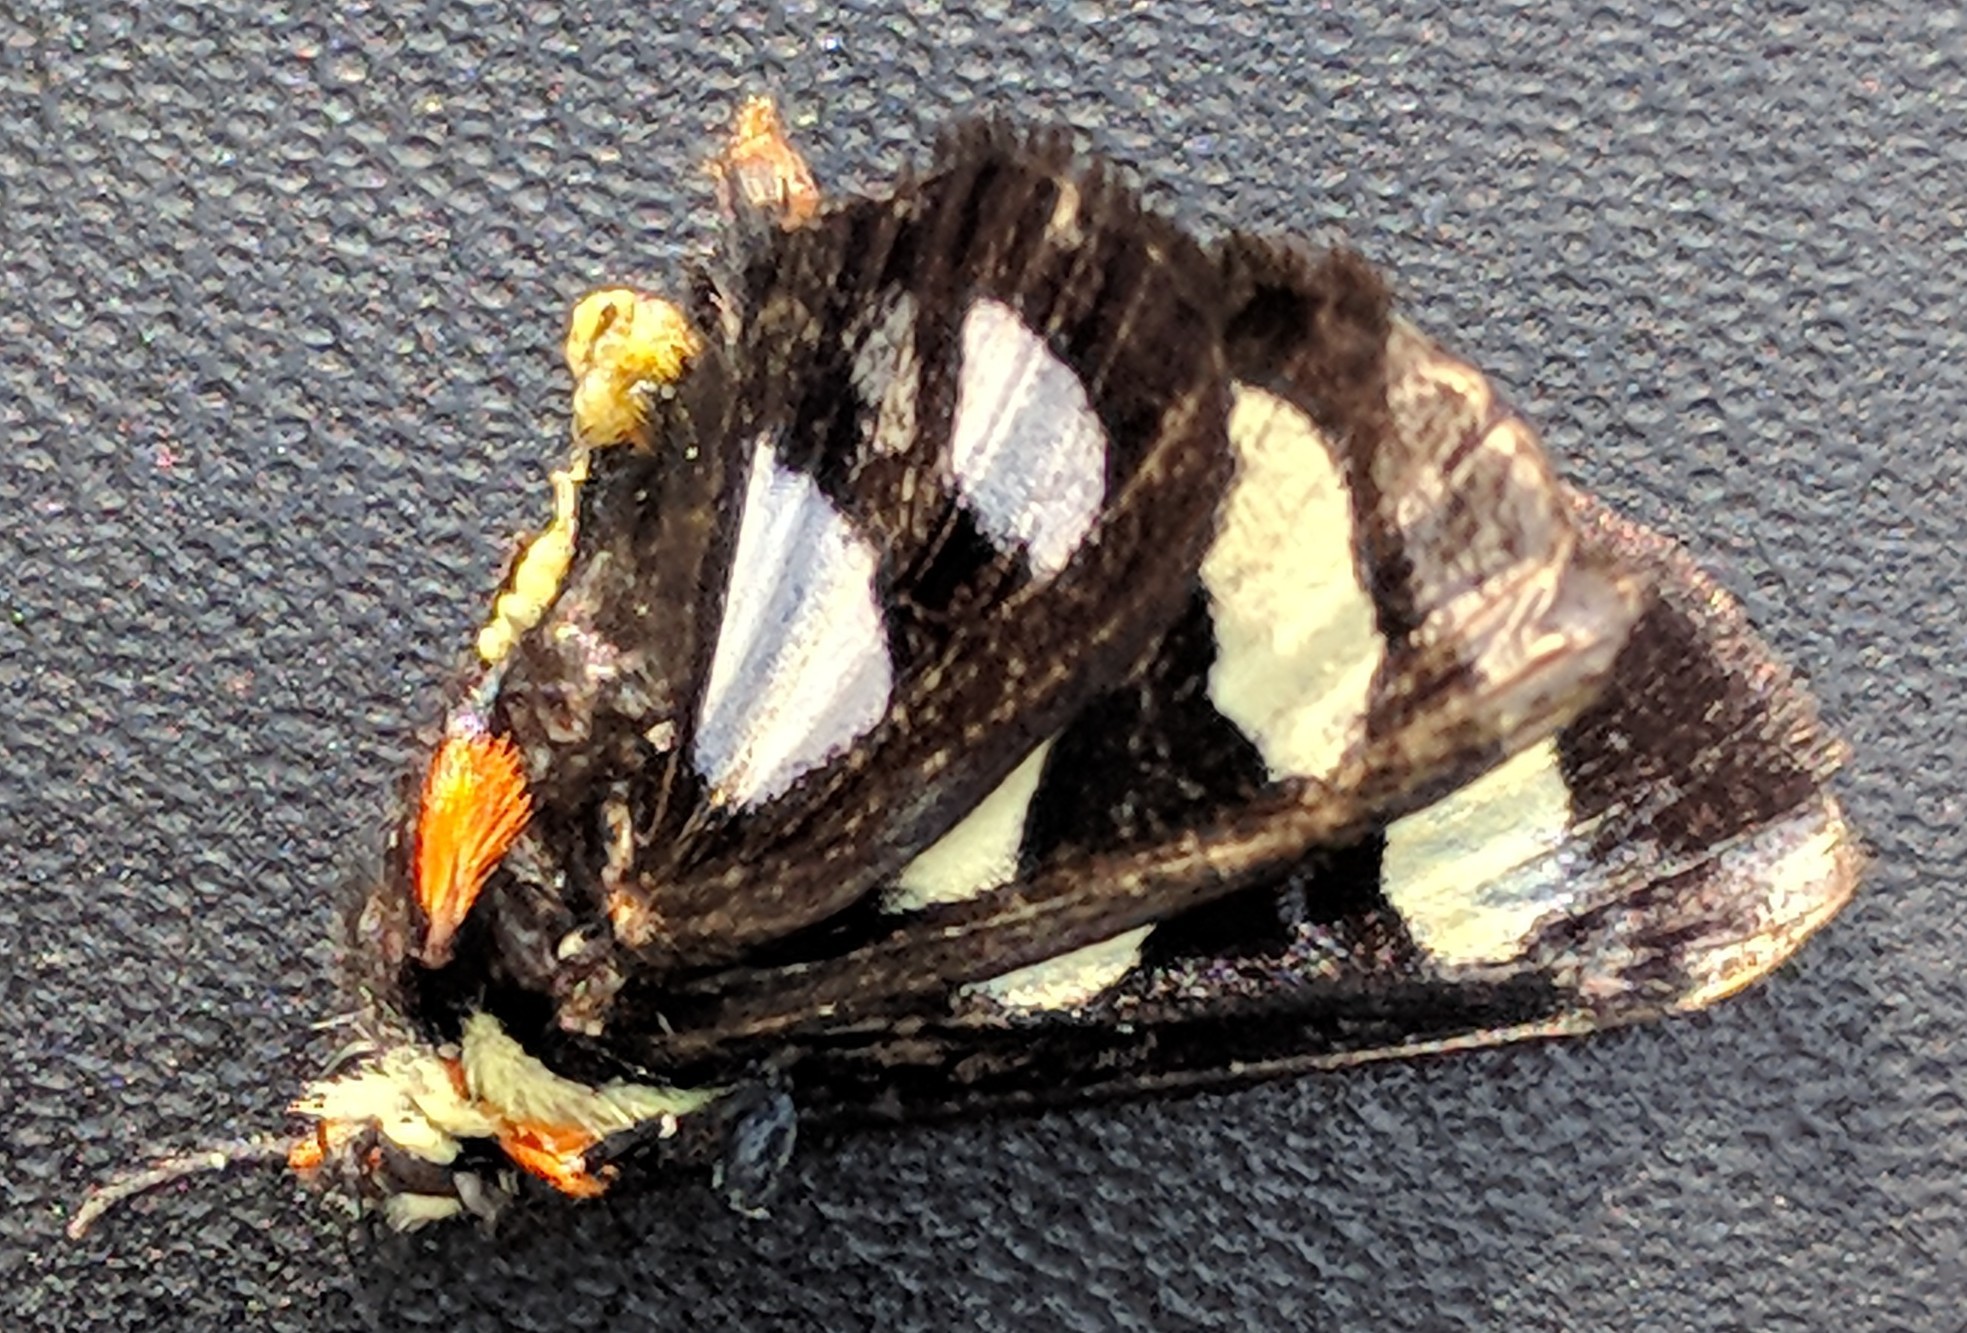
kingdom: Animalia
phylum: Arthropoda
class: Insecta
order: Lepidoptera
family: Noctuidae
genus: Alypia
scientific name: Alypia octomaculata
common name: Eight-spotted forester
